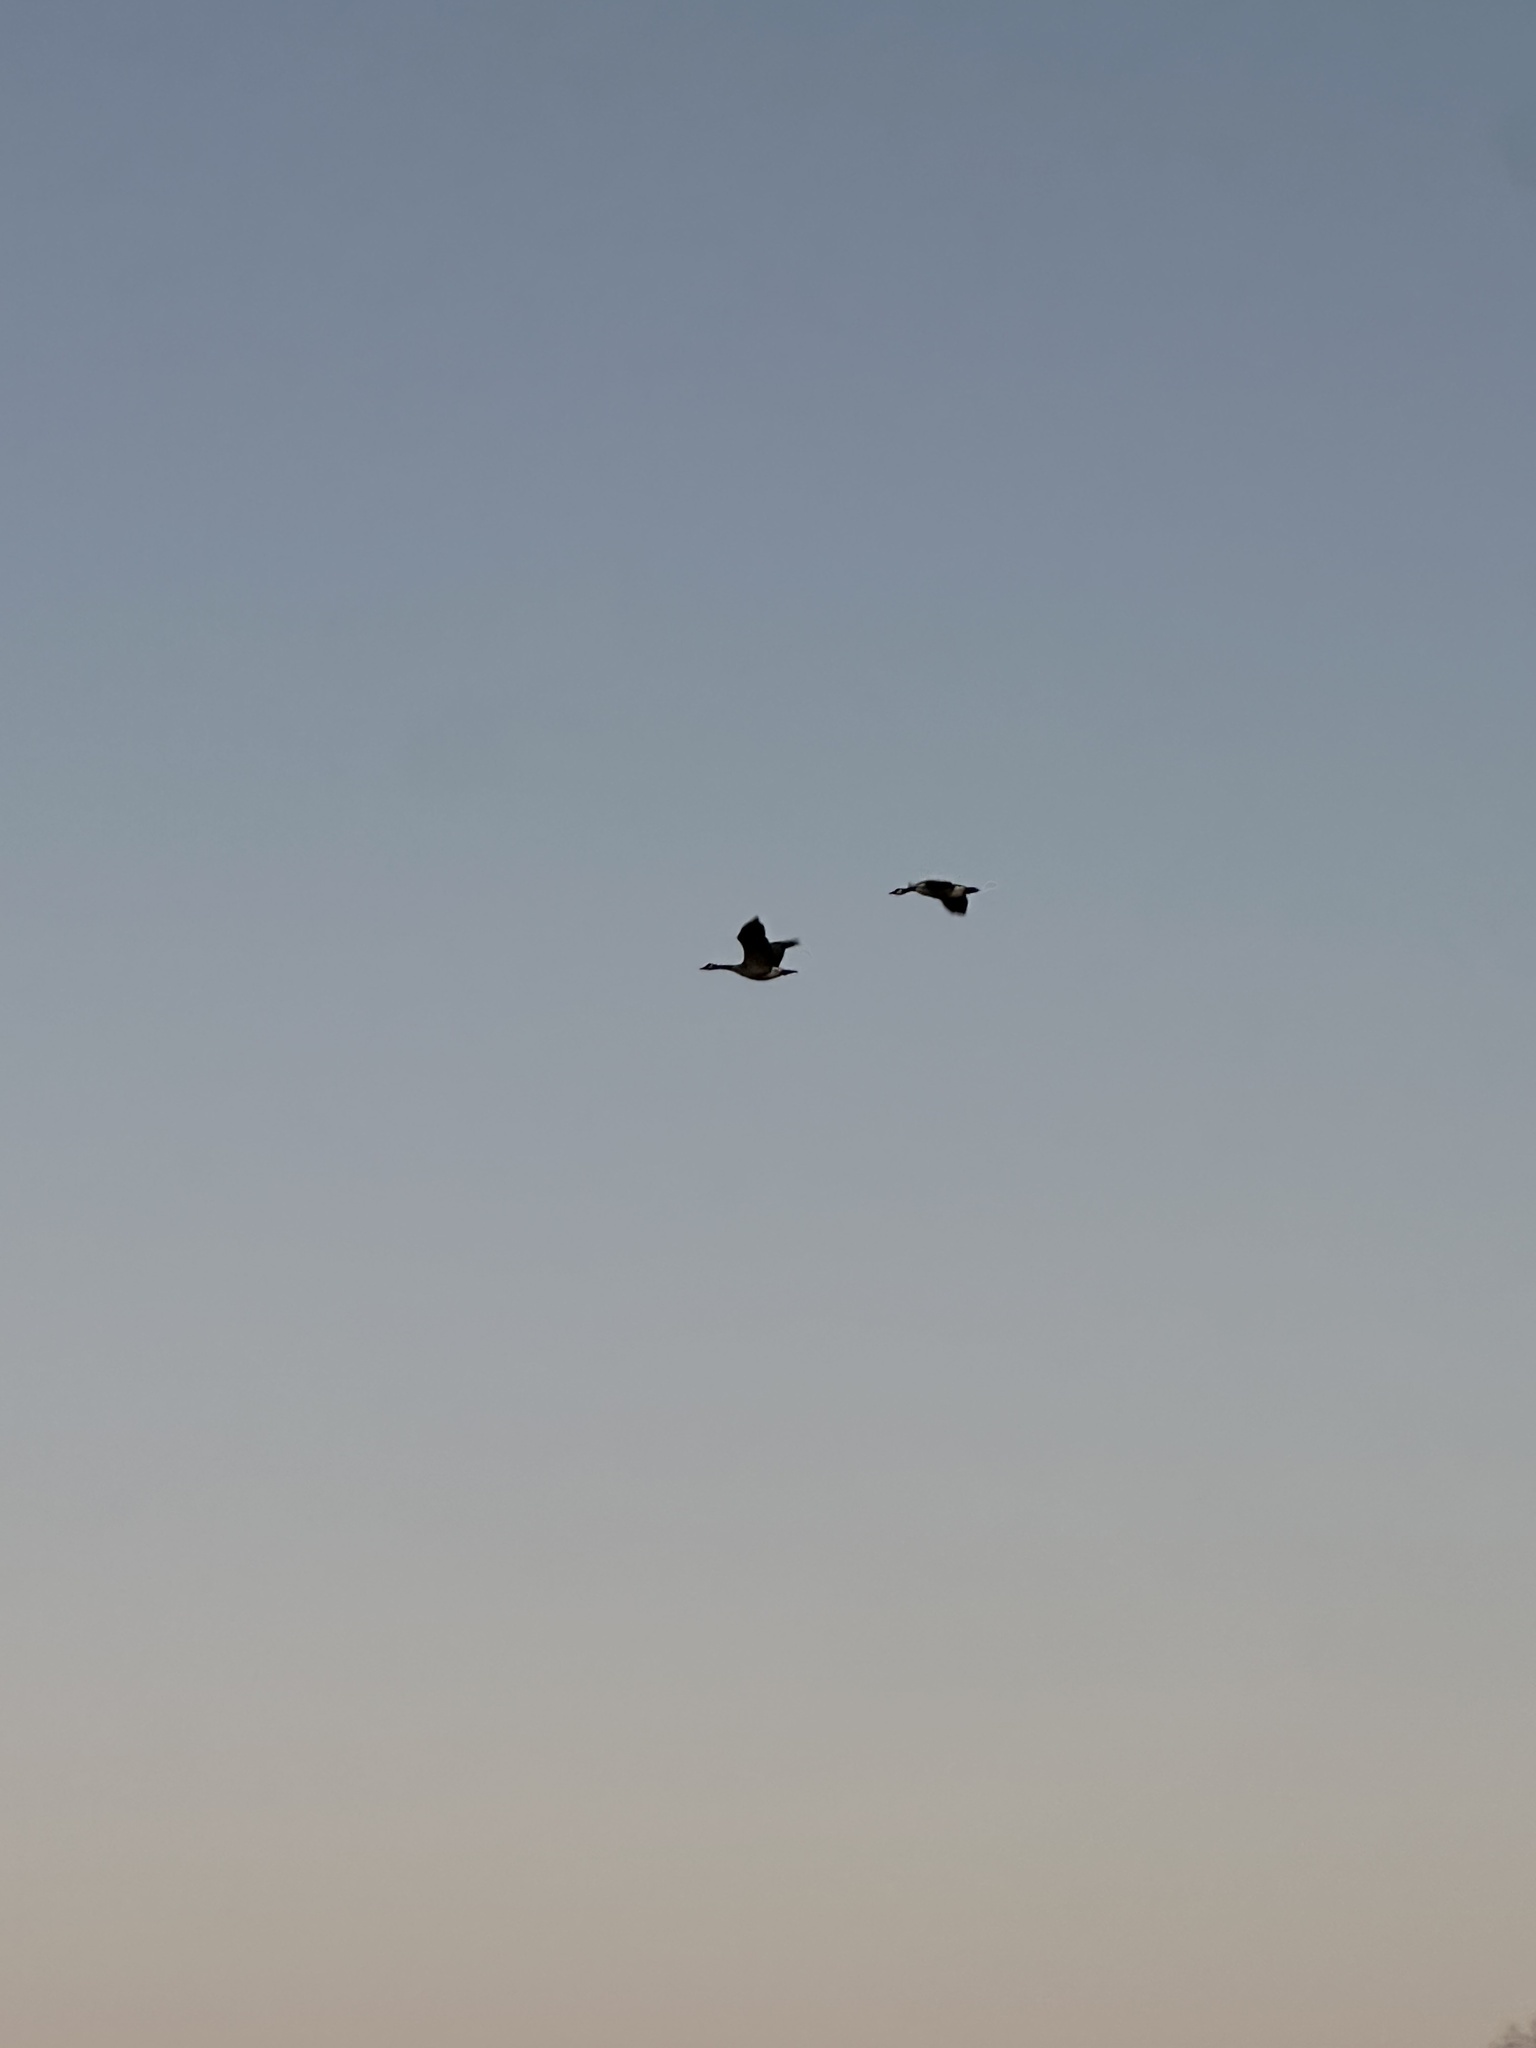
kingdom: Animalia
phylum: Chordata
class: Aves
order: Anseriformes
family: Anatidae
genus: Branta
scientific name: Branta canadensis
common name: Canada goose
